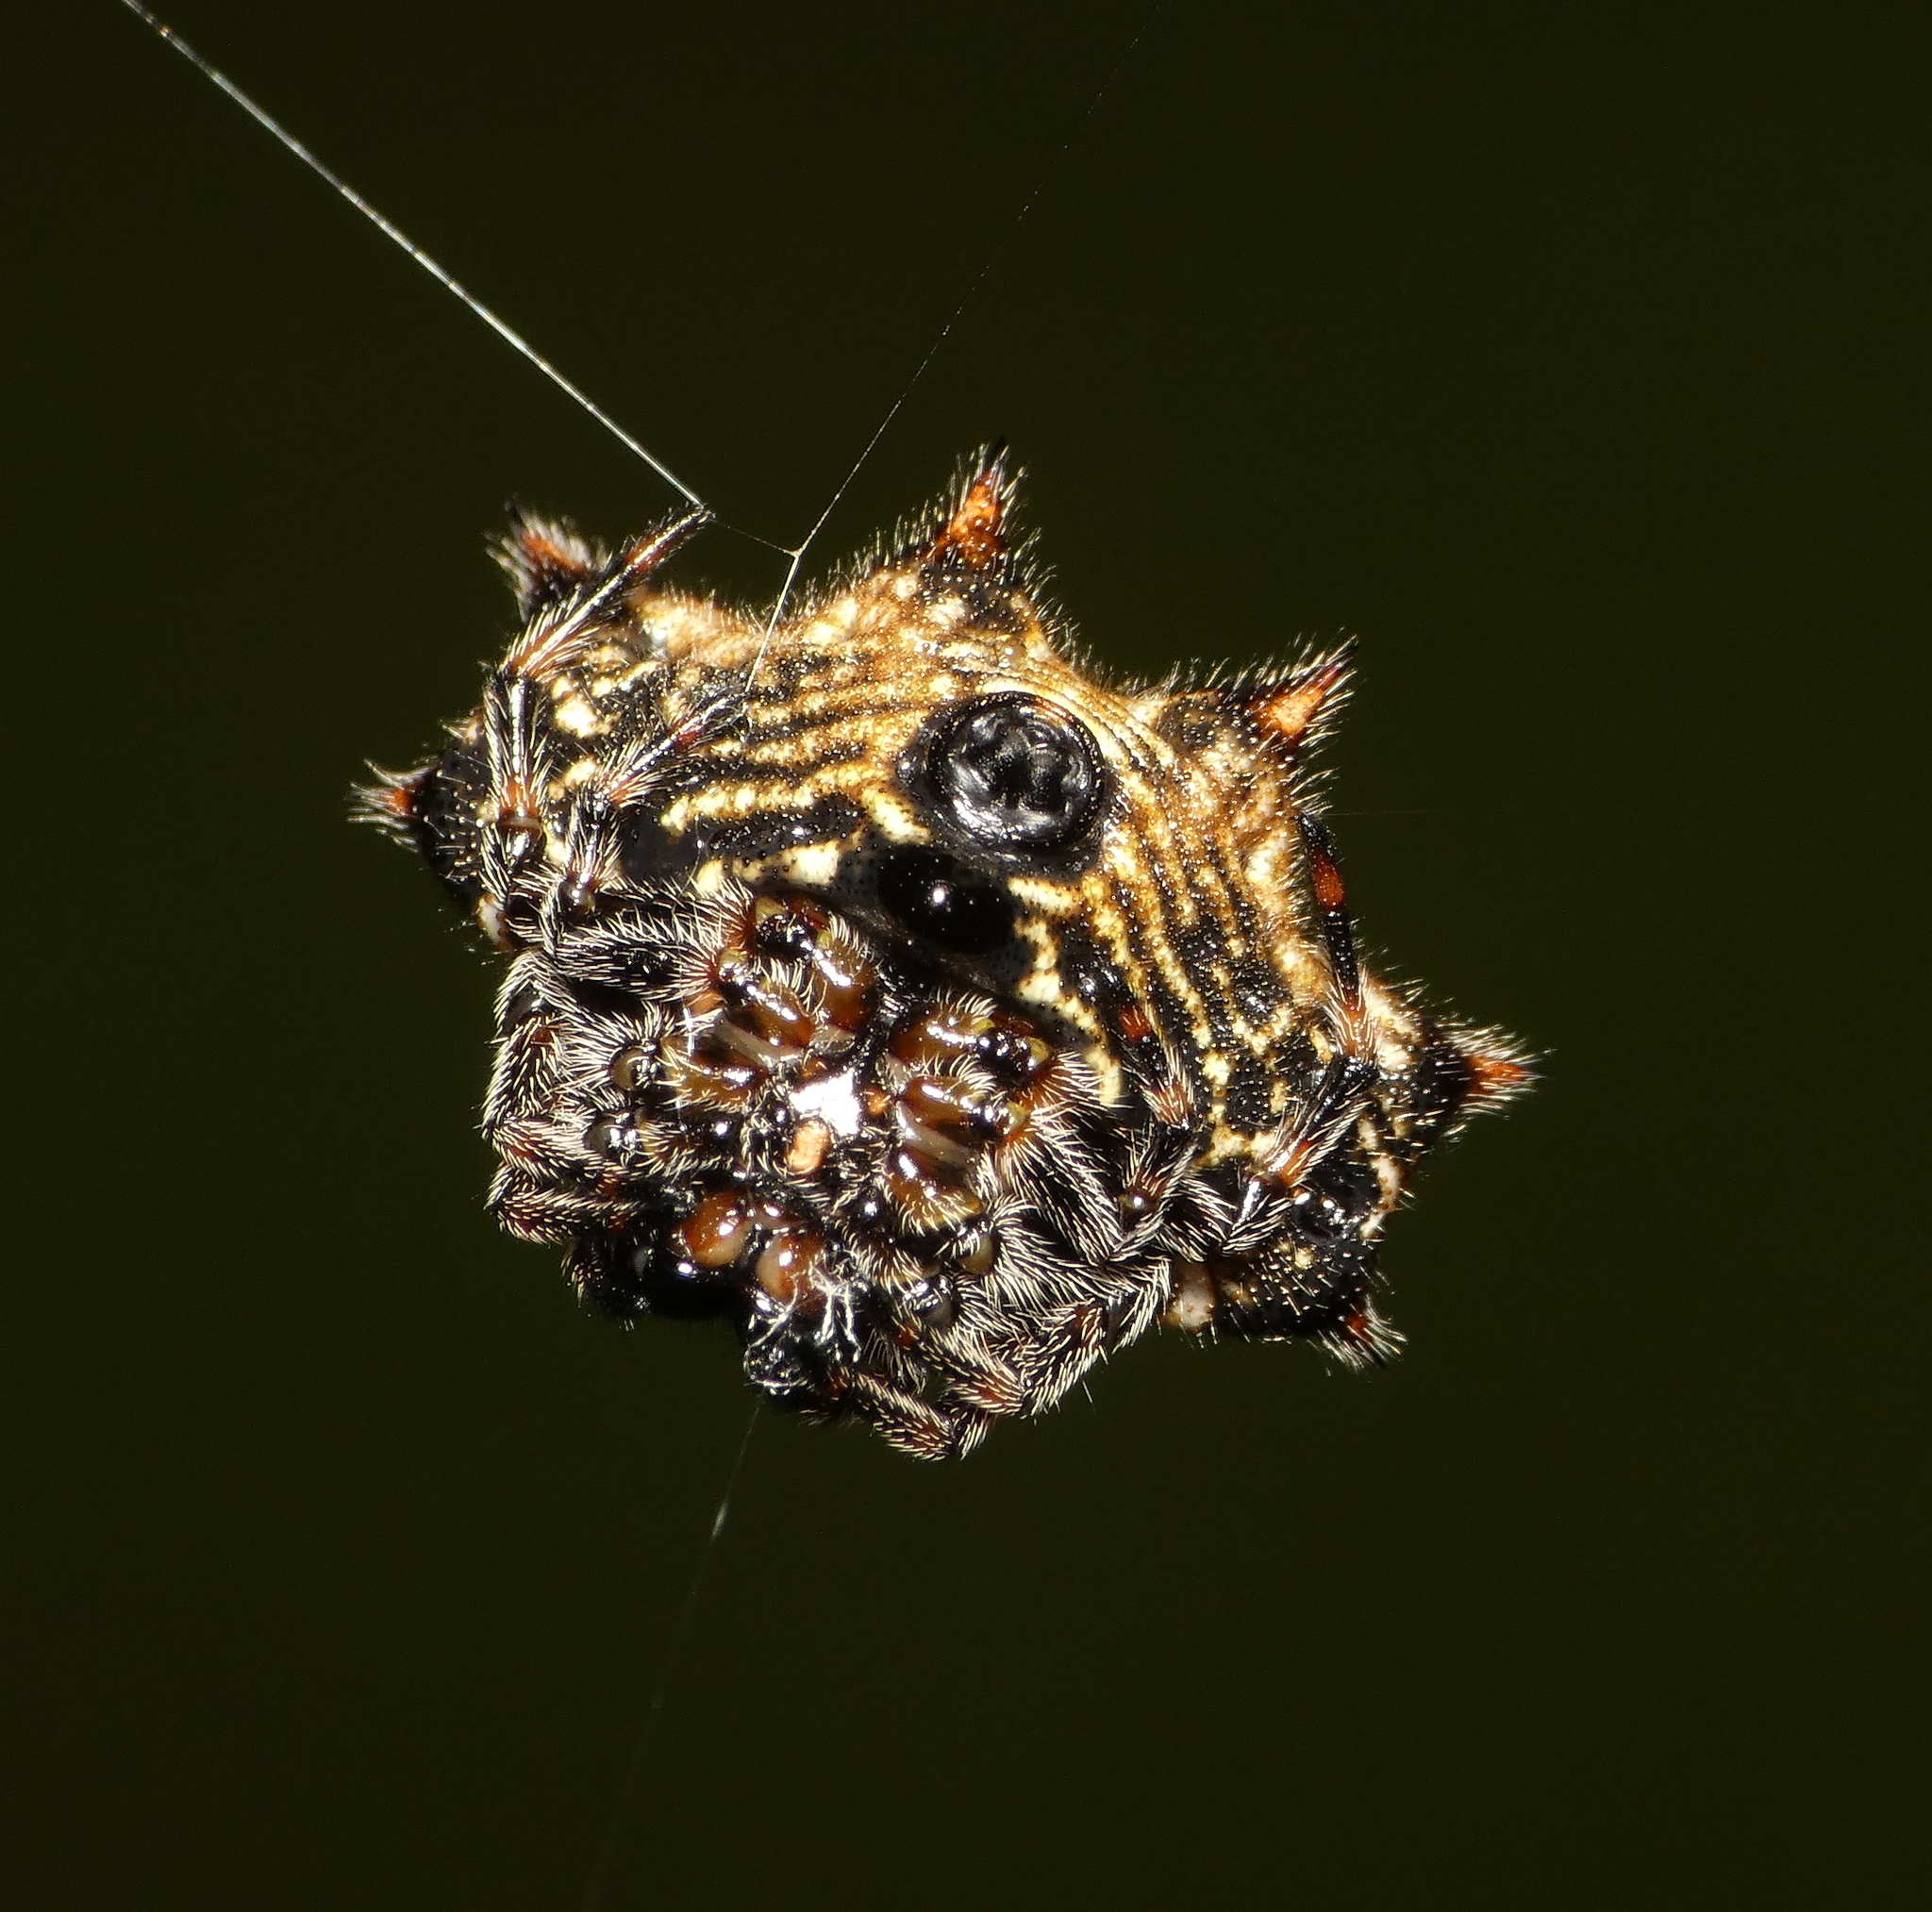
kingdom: Animalia
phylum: Arthropoda
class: Arachnida
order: Araneae
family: Araneidae
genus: Gasteracantha
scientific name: Gasteracantha cancriformis
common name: Orb weavers
